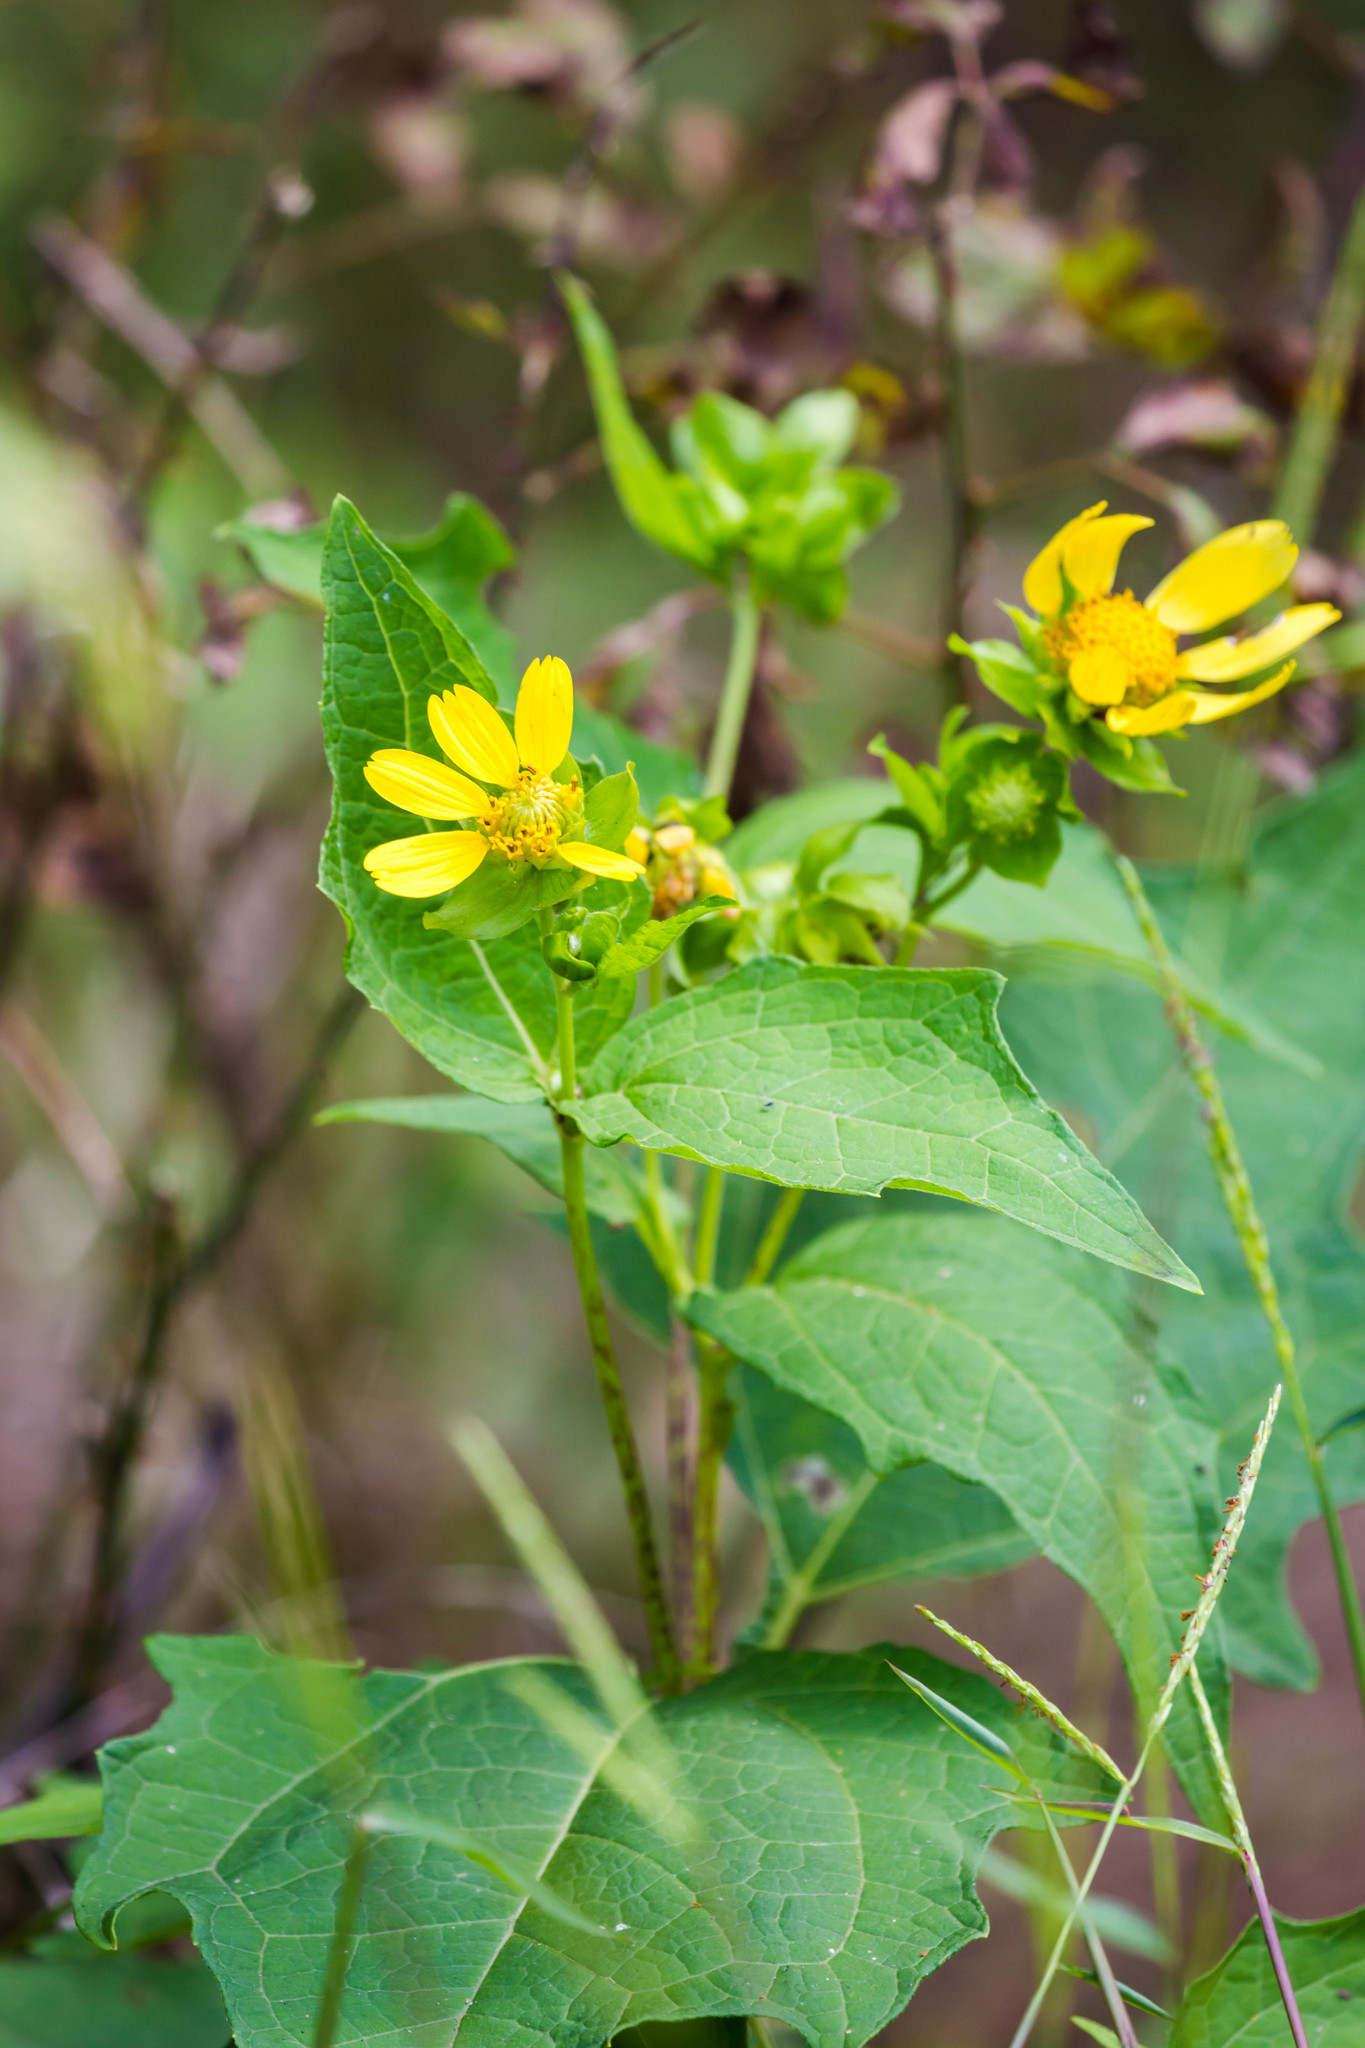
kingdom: Plantae
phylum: Tracheophyta
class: Magnoliopsida
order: Asterales
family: Asteraceae
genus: Smallanthus
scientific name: Smallanthus uvedalia
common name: Bear's-foot
